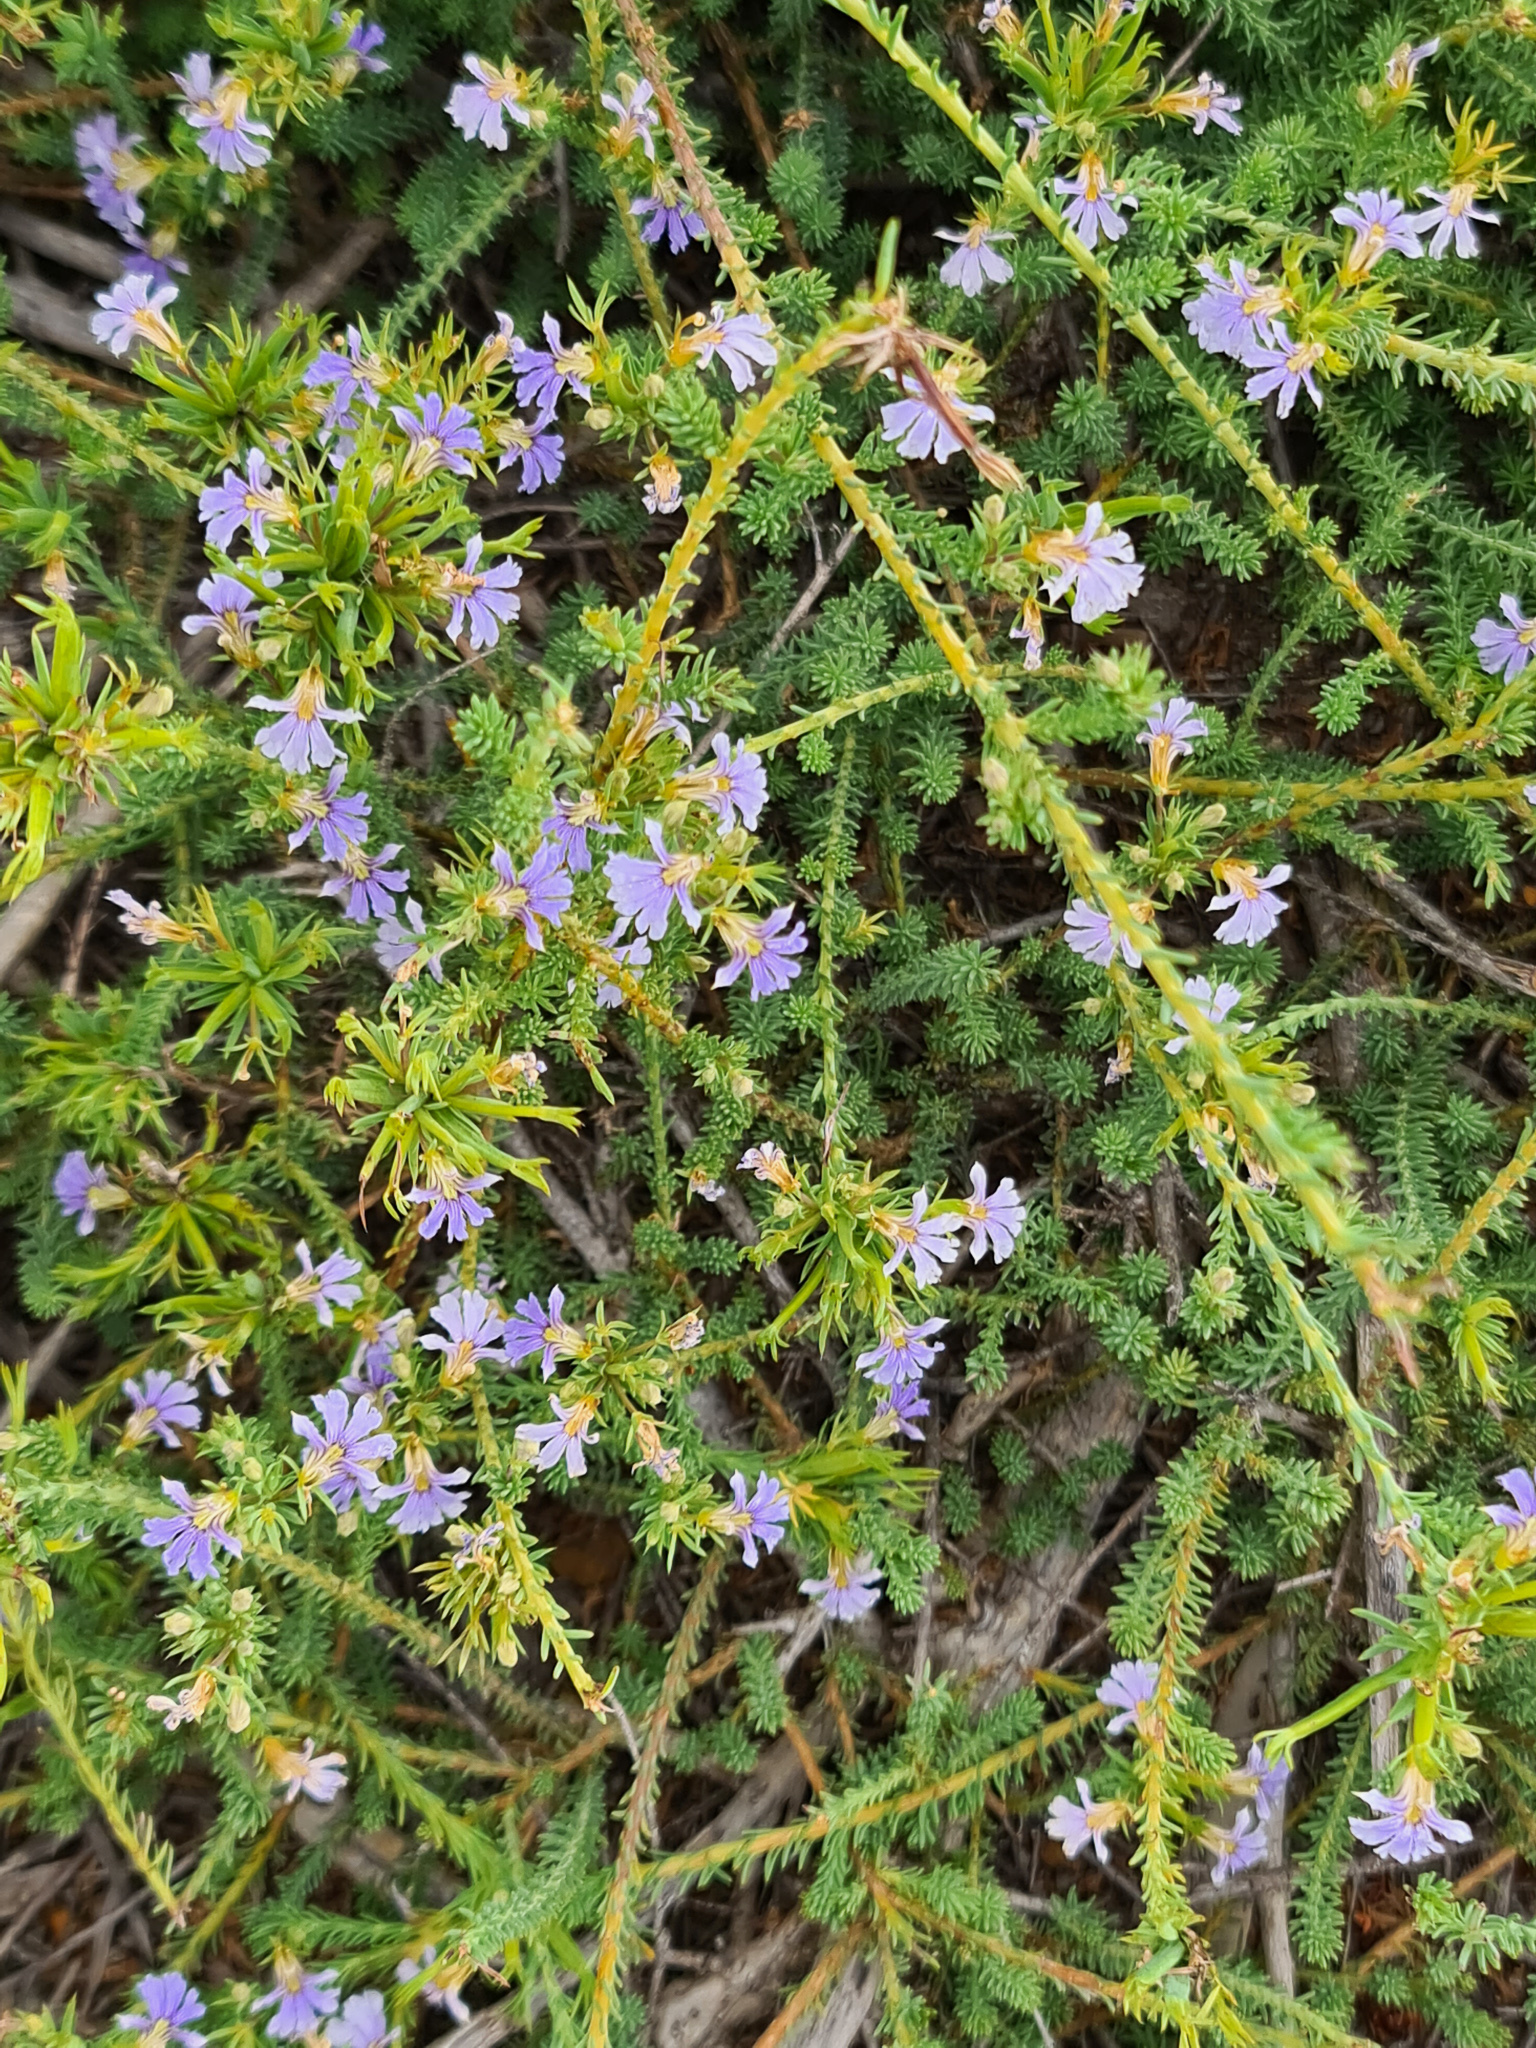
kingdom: Plantae
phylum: Tracheophyta
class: Magnoliopsida
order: Asterales
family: Goodeniaceae
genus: Lechenaultia
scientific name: Lechenaultia floribunda
